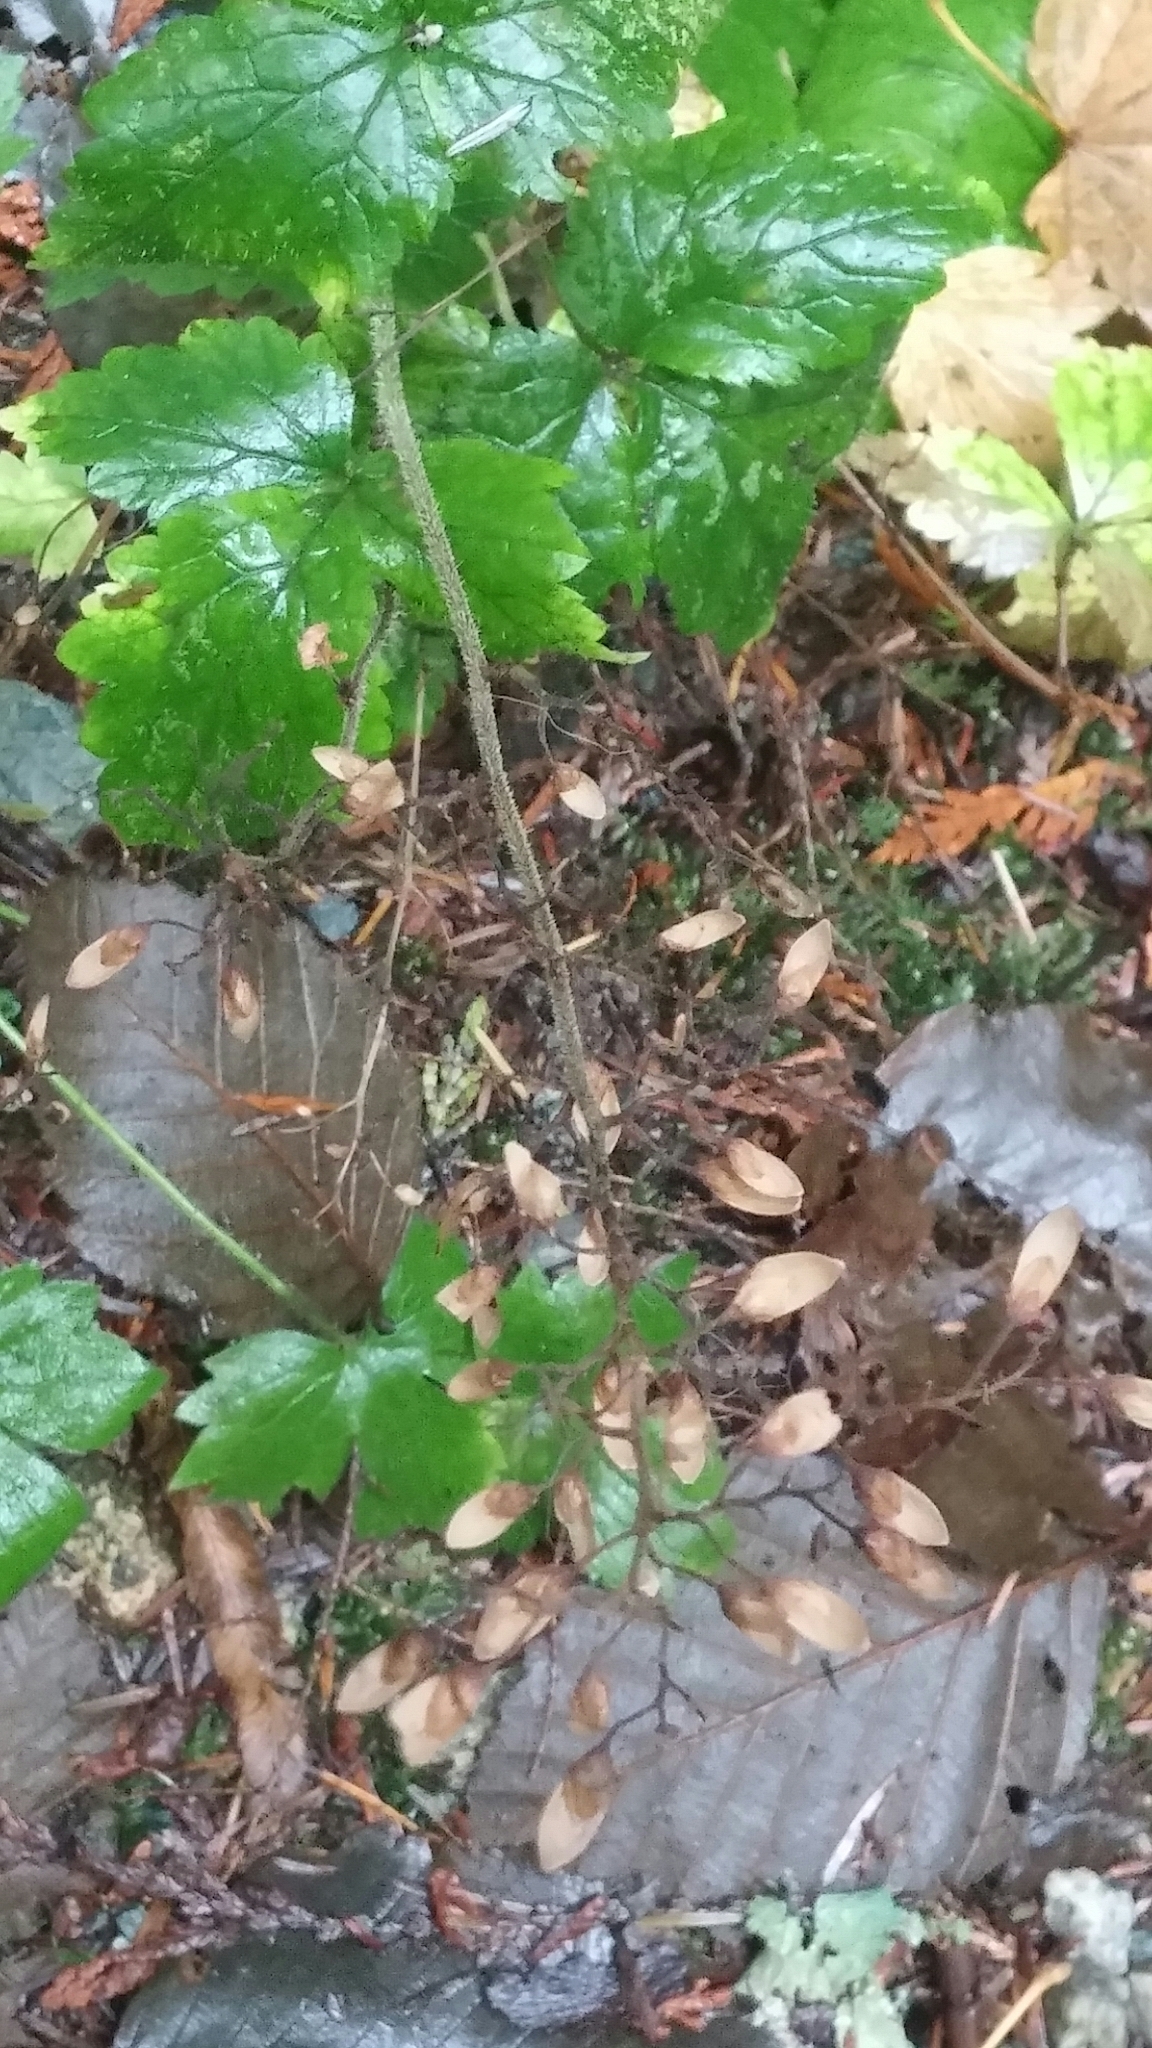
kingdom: Plantae
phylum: Tracheophyta
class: Magnoliopsida
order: Saxifragales
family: Saxifragaceae
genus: Tiarella
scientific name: Tiarella trifoliata
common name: Sugar-scoop
